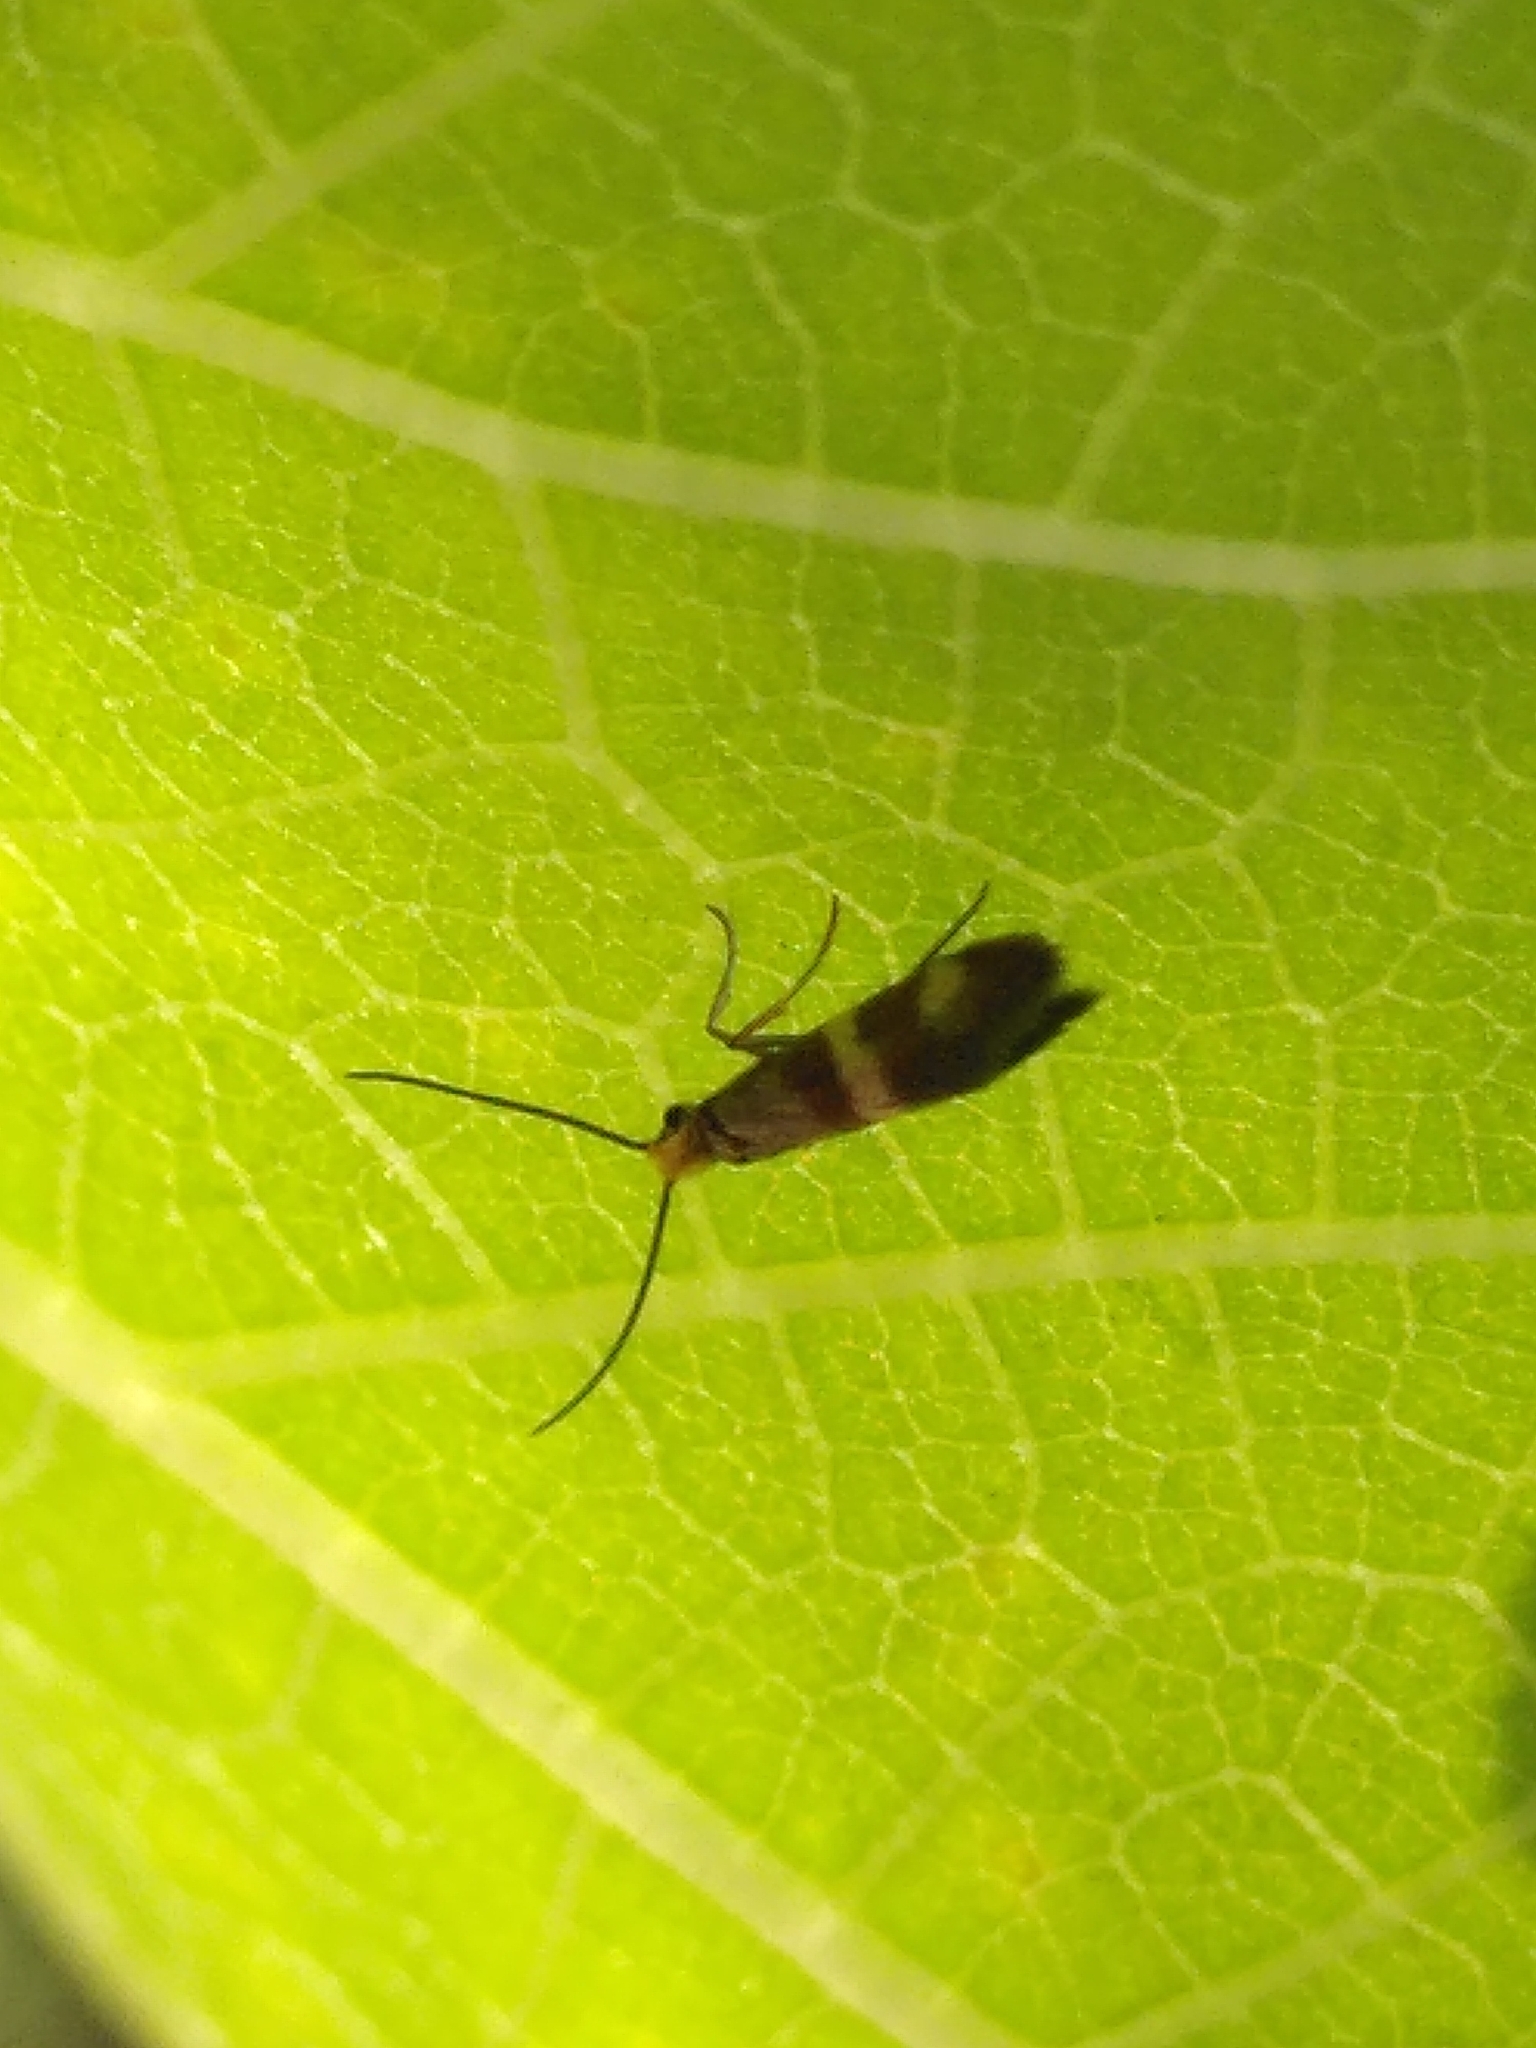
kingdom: Animalia
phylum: Arthropoda
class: Insecta
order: Lepidoptera
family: Micropterigidae
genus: Micropterix
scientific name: Micropterix aglaella
